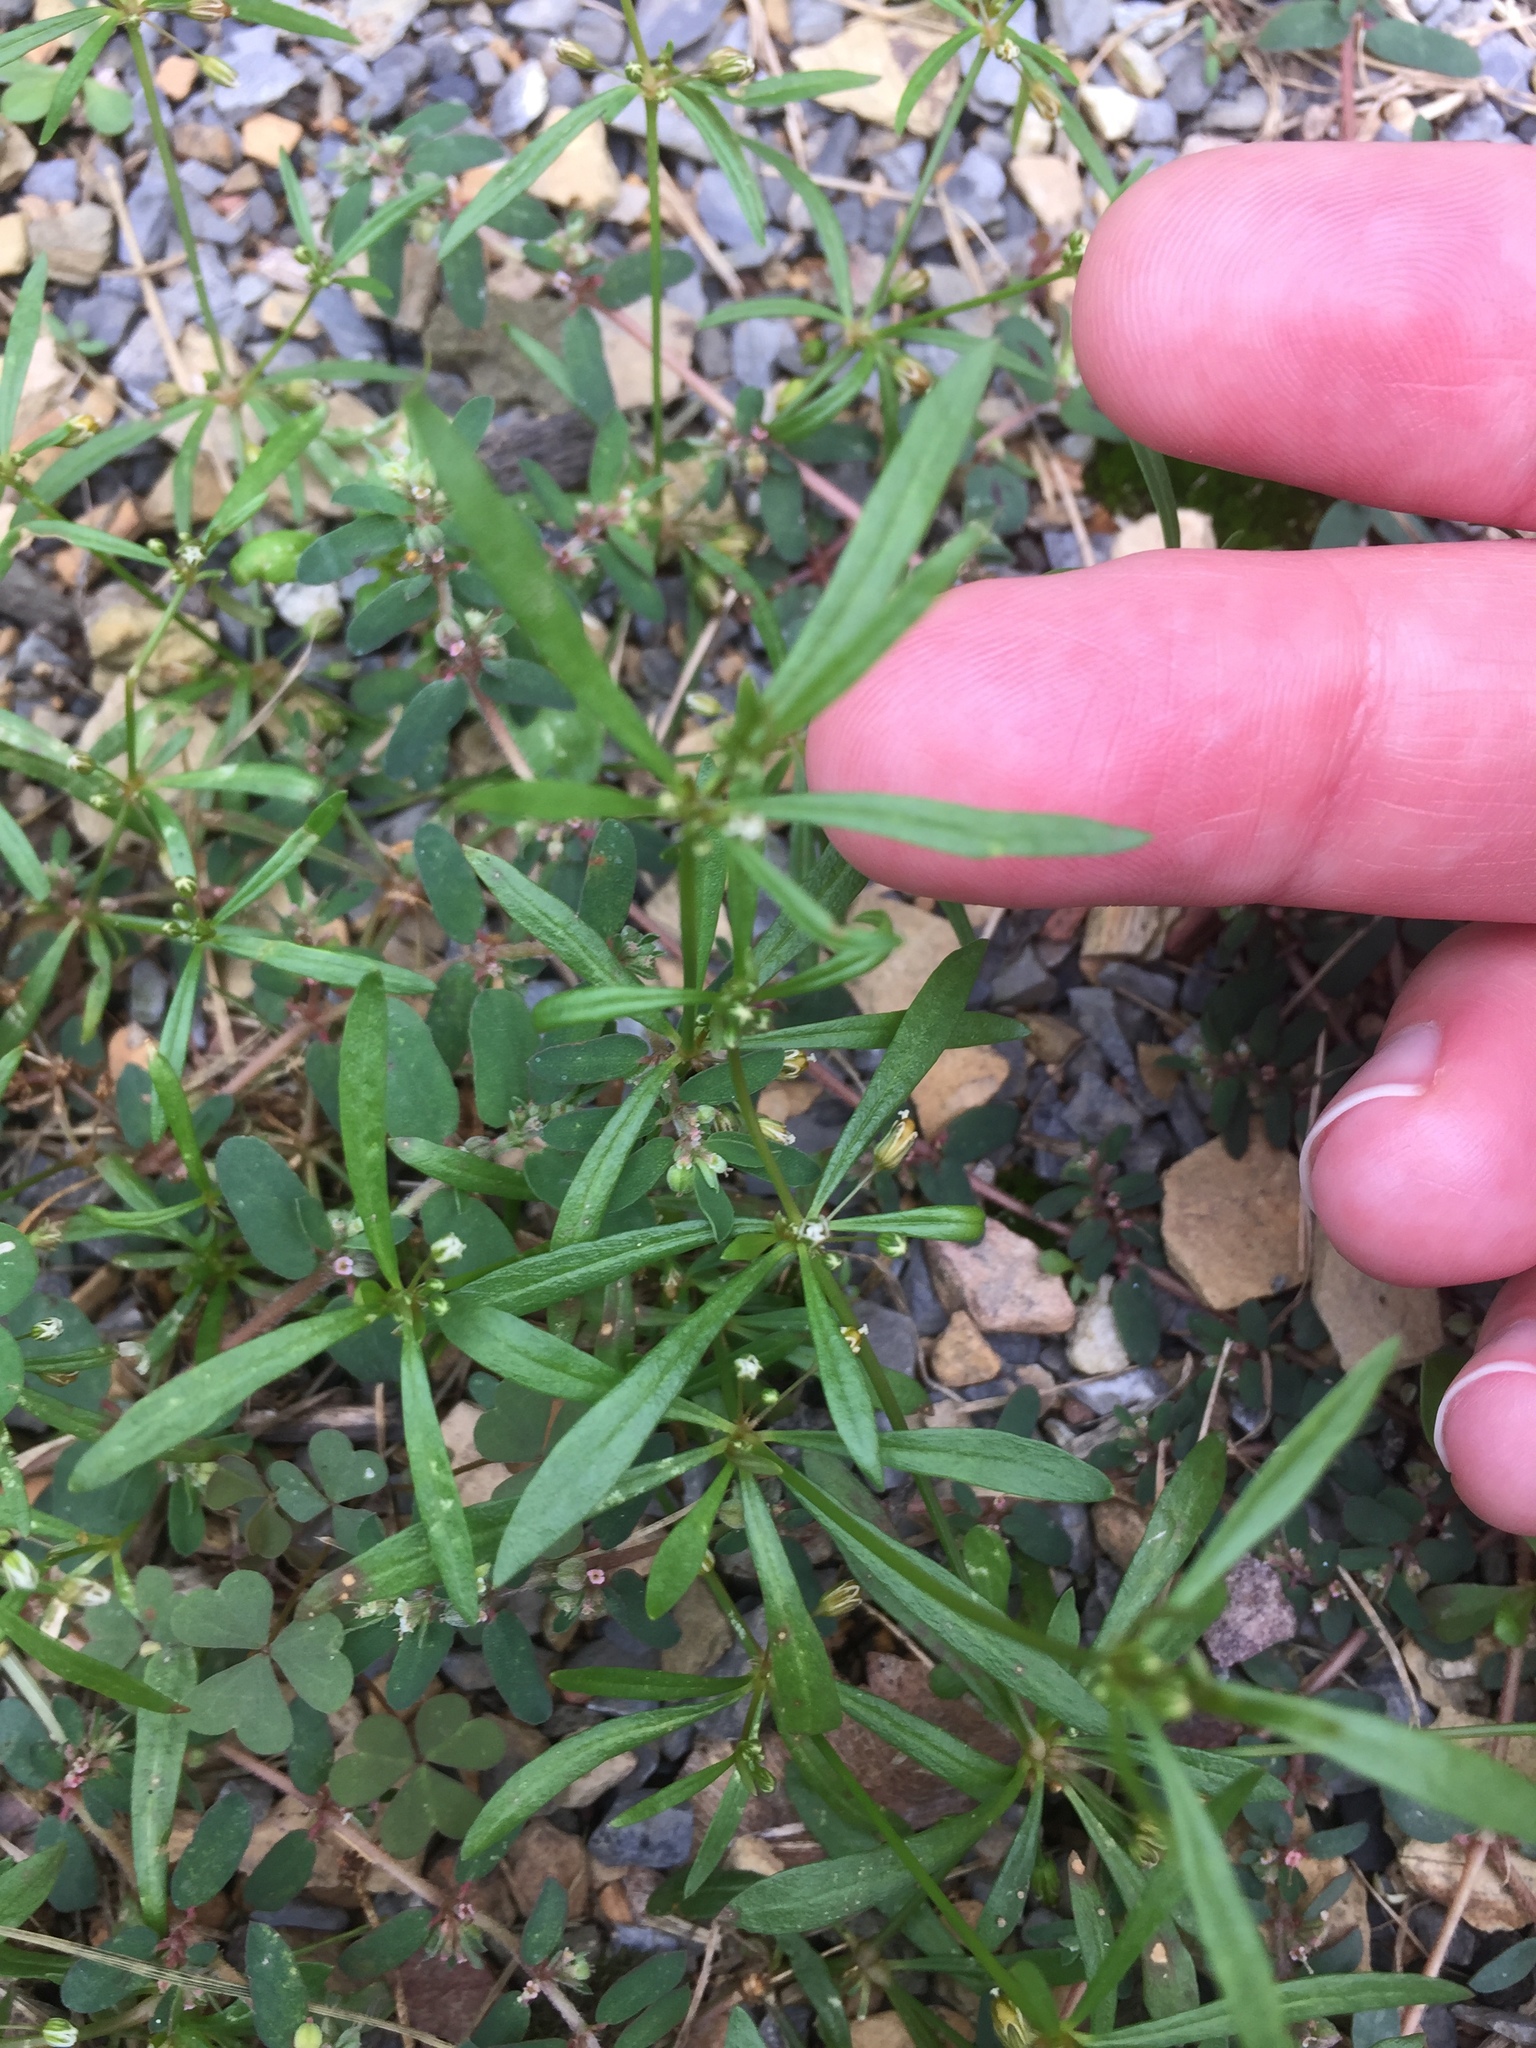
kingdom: Plantae
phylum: Tracheophyta
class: Magnoliopsida
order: Caryophyllales
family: Molluginaceae
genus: Mollugo
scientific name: Mollugo verticillata
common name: Green carpetweed
